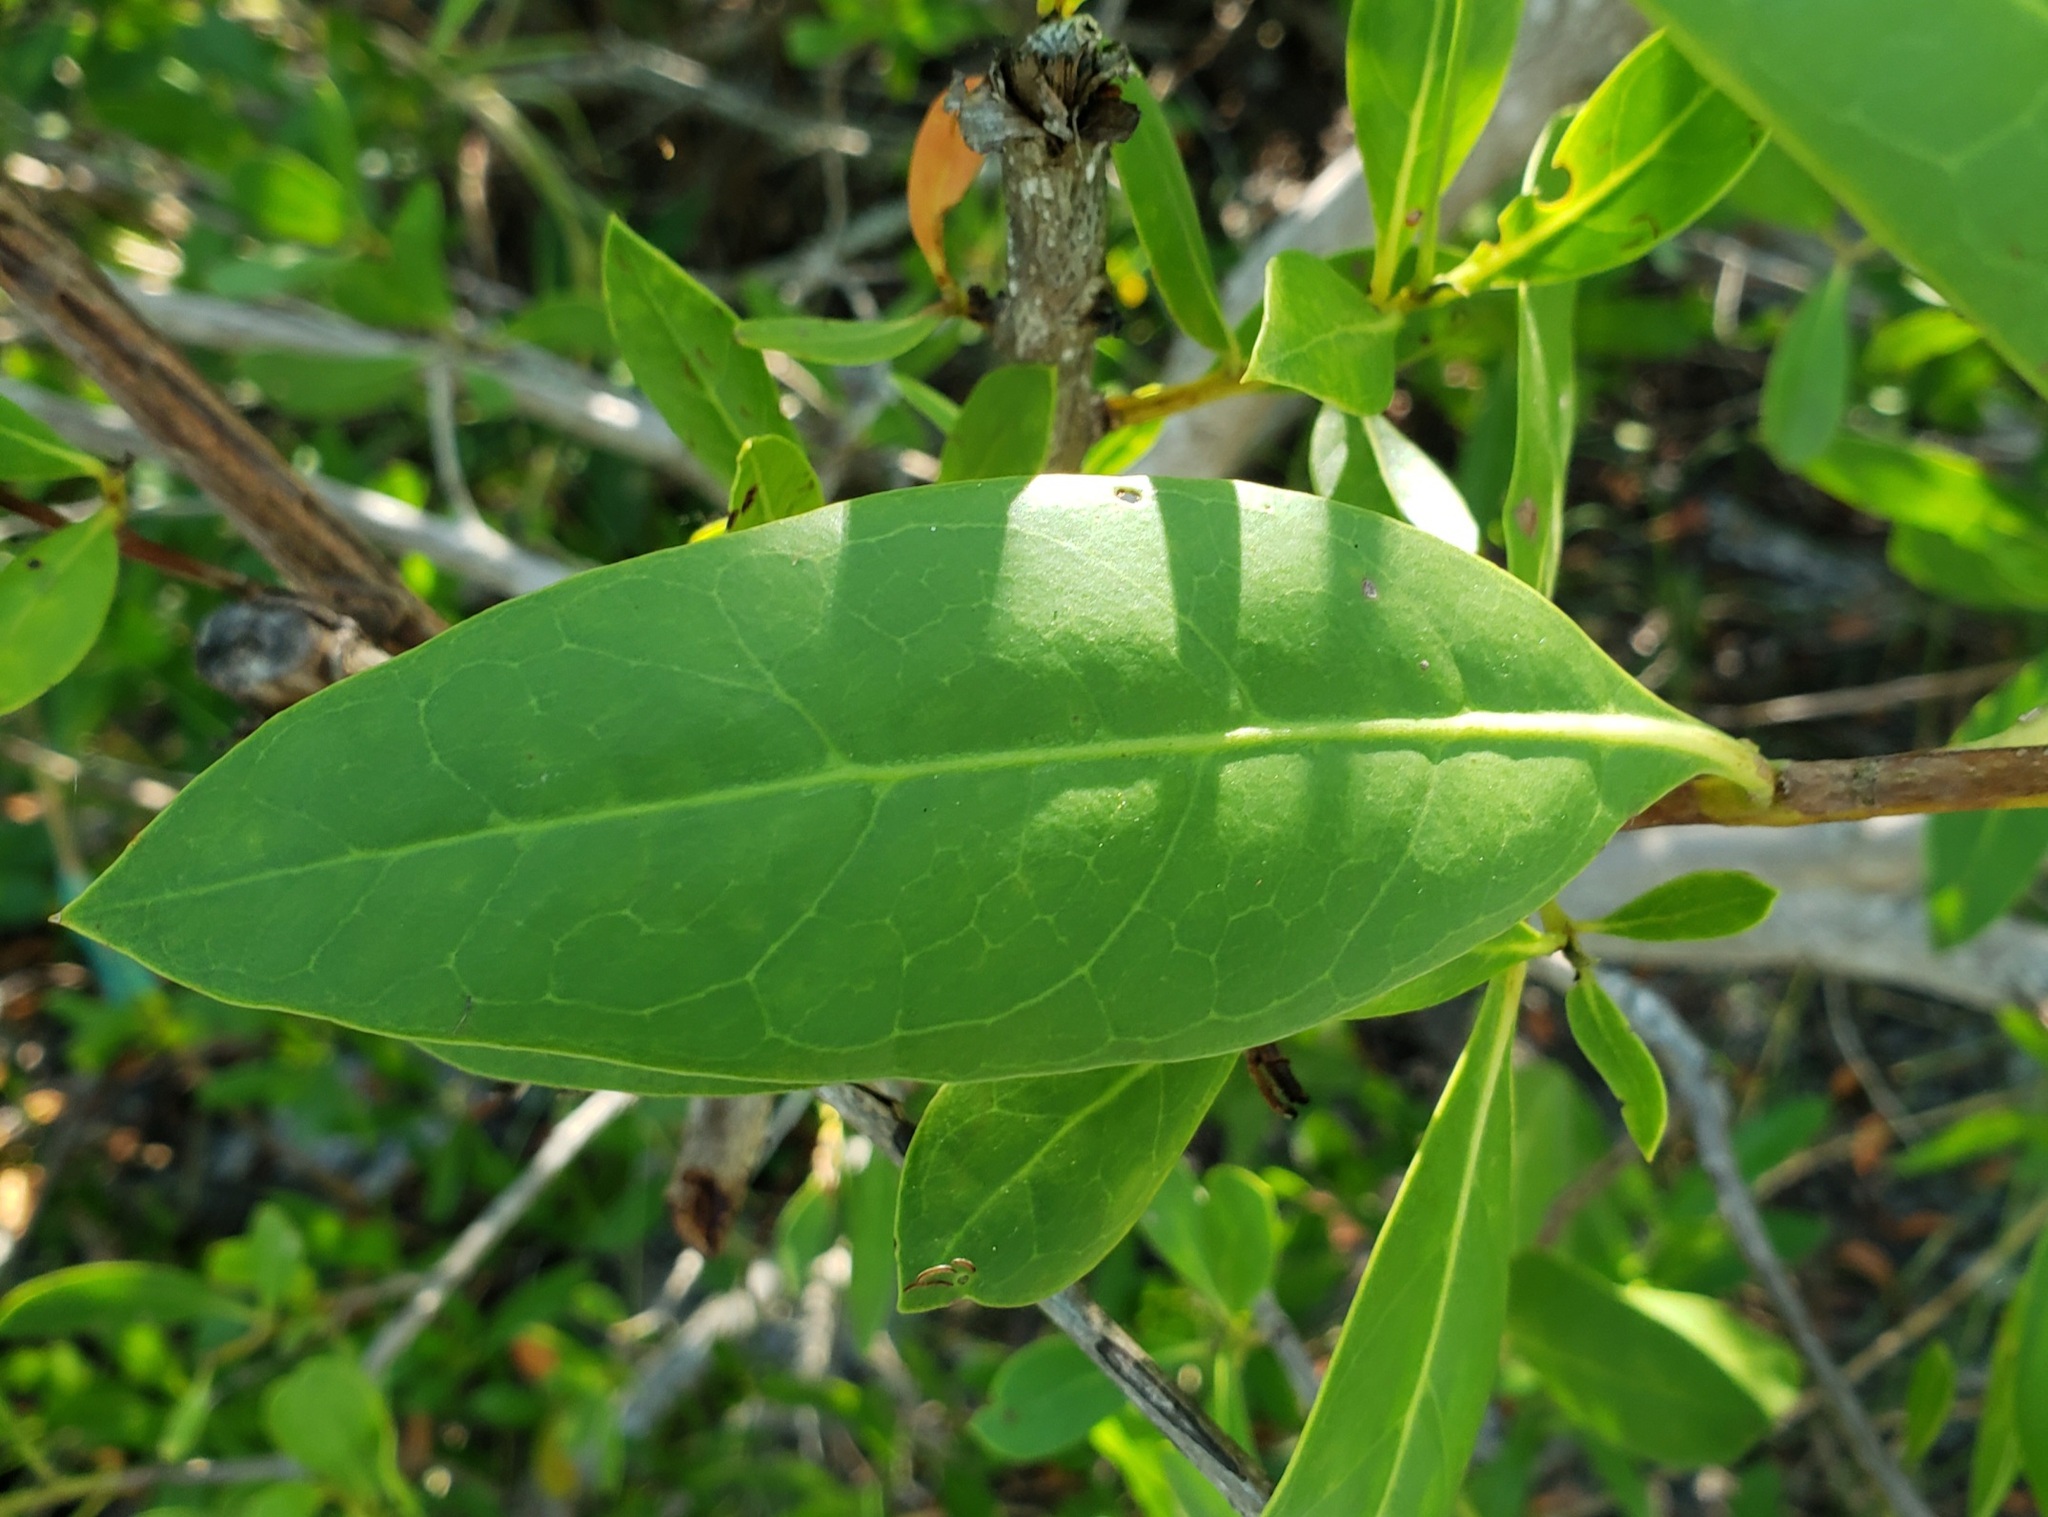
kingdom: Plantae
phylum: Tracheophyta
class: Magnoliopsida
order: Myrtales
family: Combretaceae
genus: Conocarpus
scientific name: Conocarpus erectus
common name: Button mangrove
